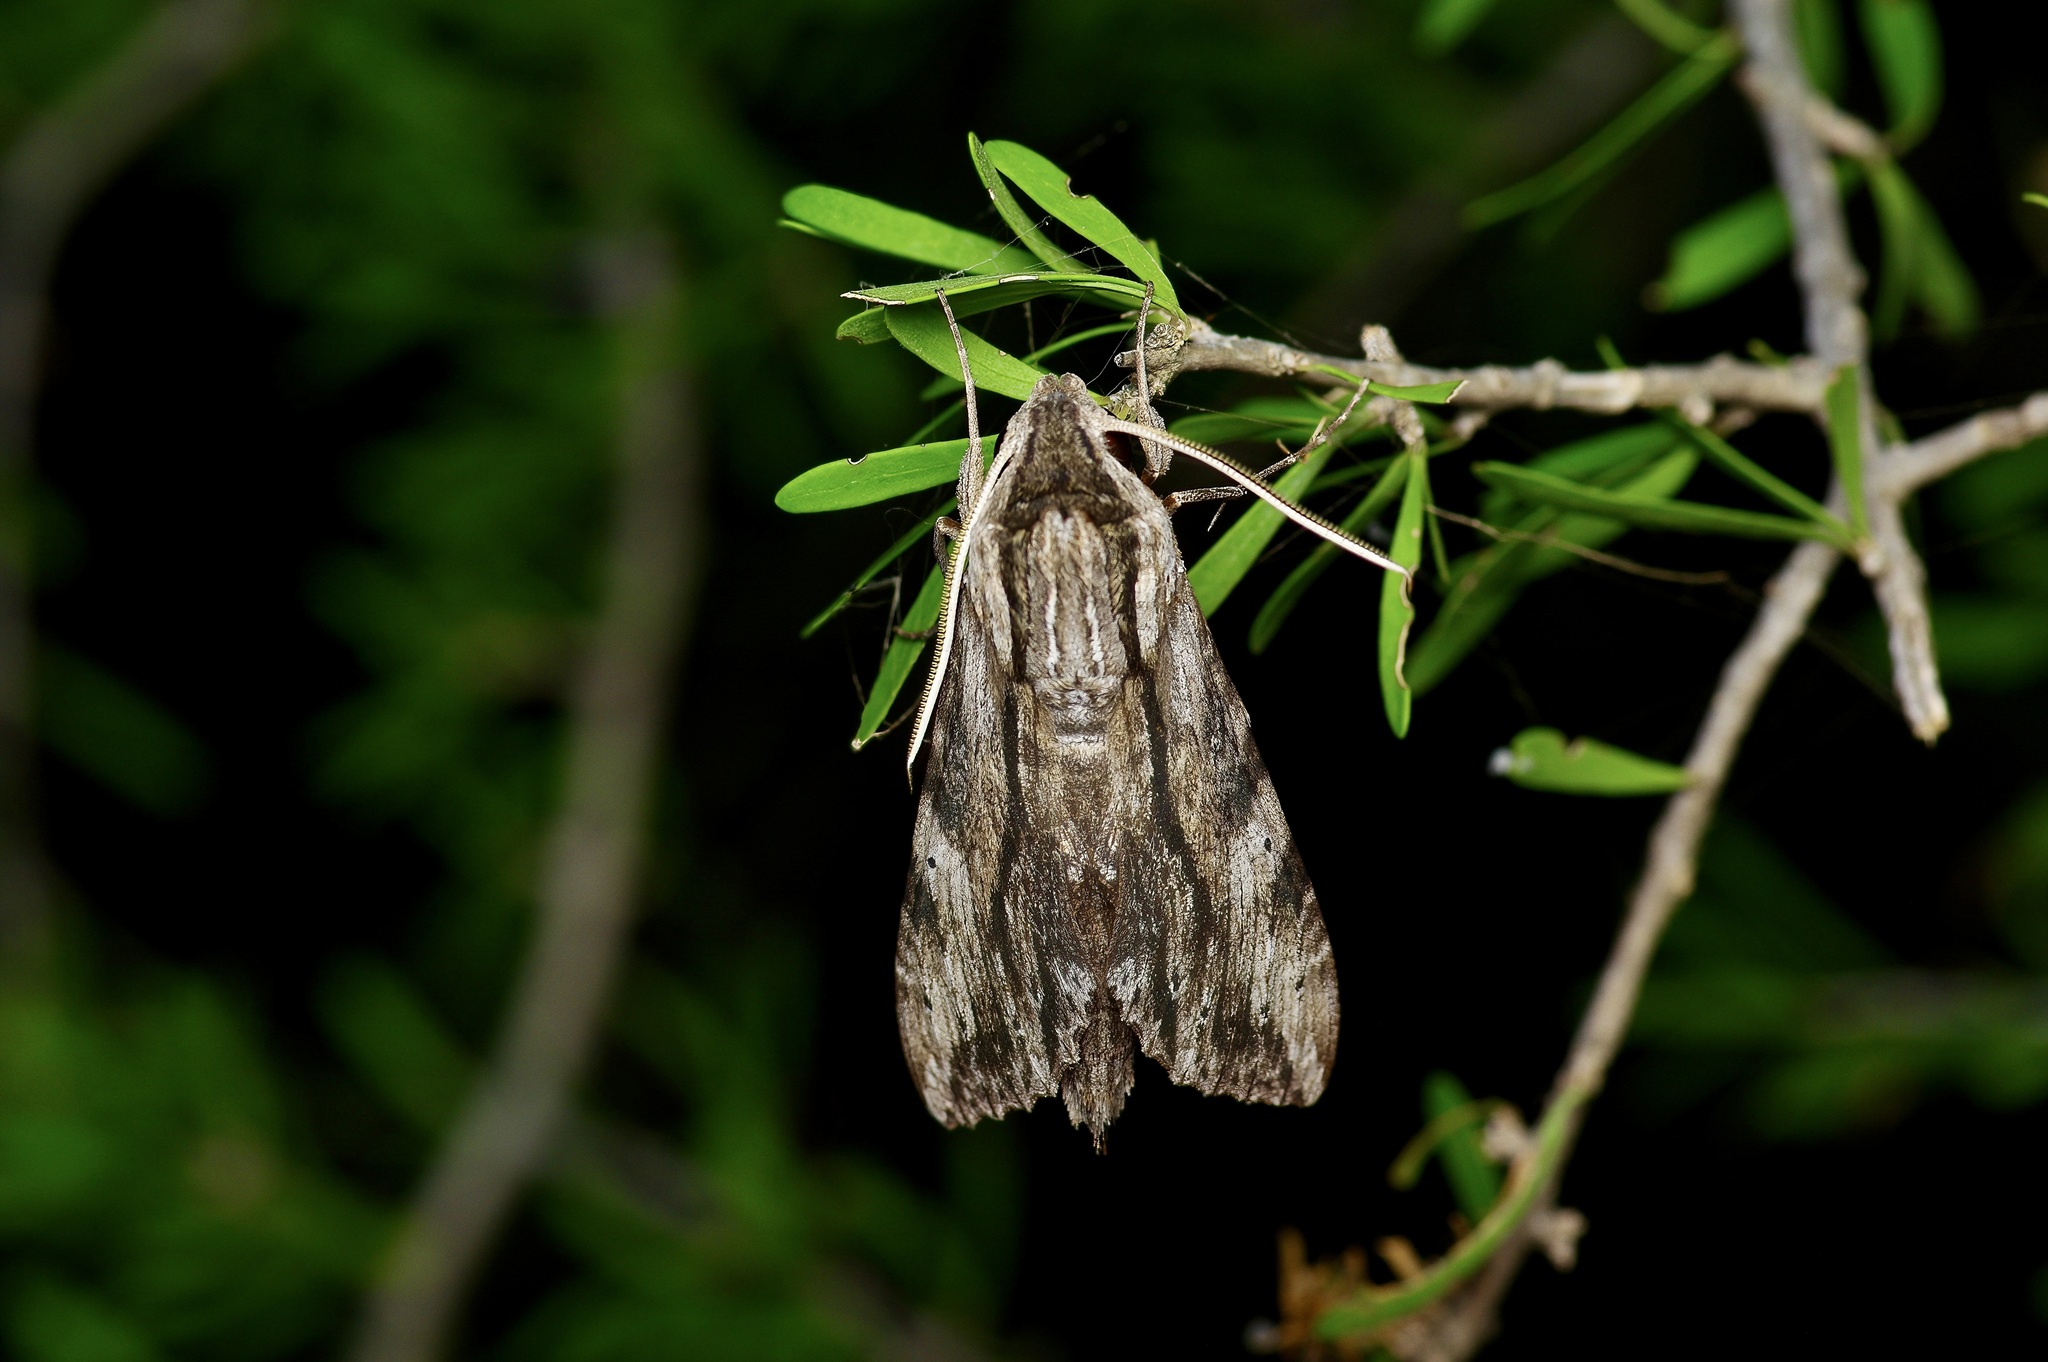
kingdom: Animalia
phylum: Arthropoda
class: Insecta
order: Lepidoptera
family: Sphingidae
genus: Erinnyis
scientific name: Erinnyis obscura
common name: Obscure sphinx
